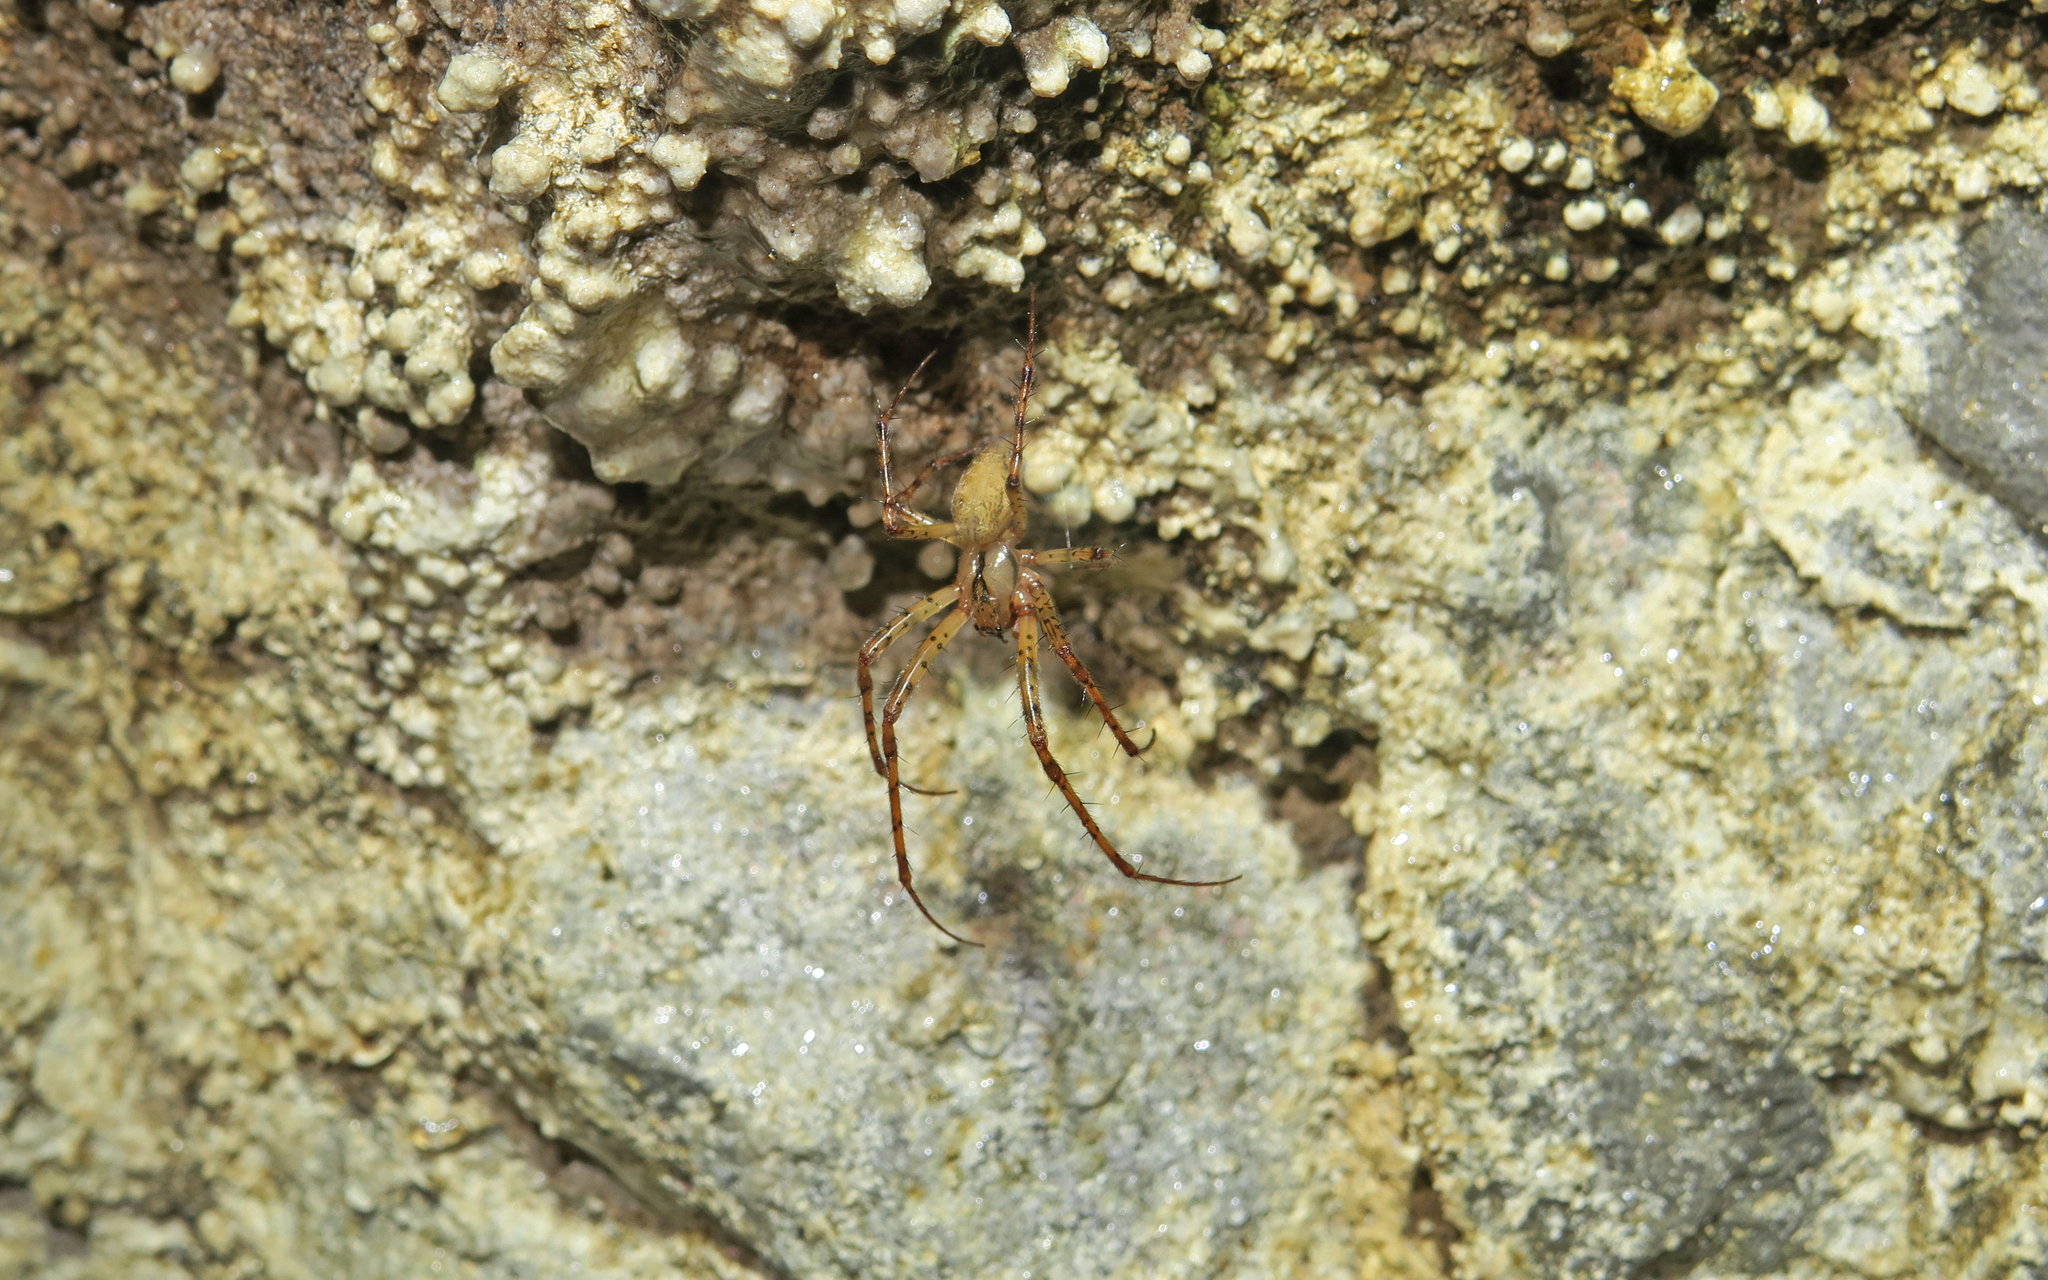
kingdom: Animalia
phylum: Arthropoda
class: Arachnida
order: Araneae
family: Tetragnathidae
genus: Metellina
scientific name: Metellina merianae
